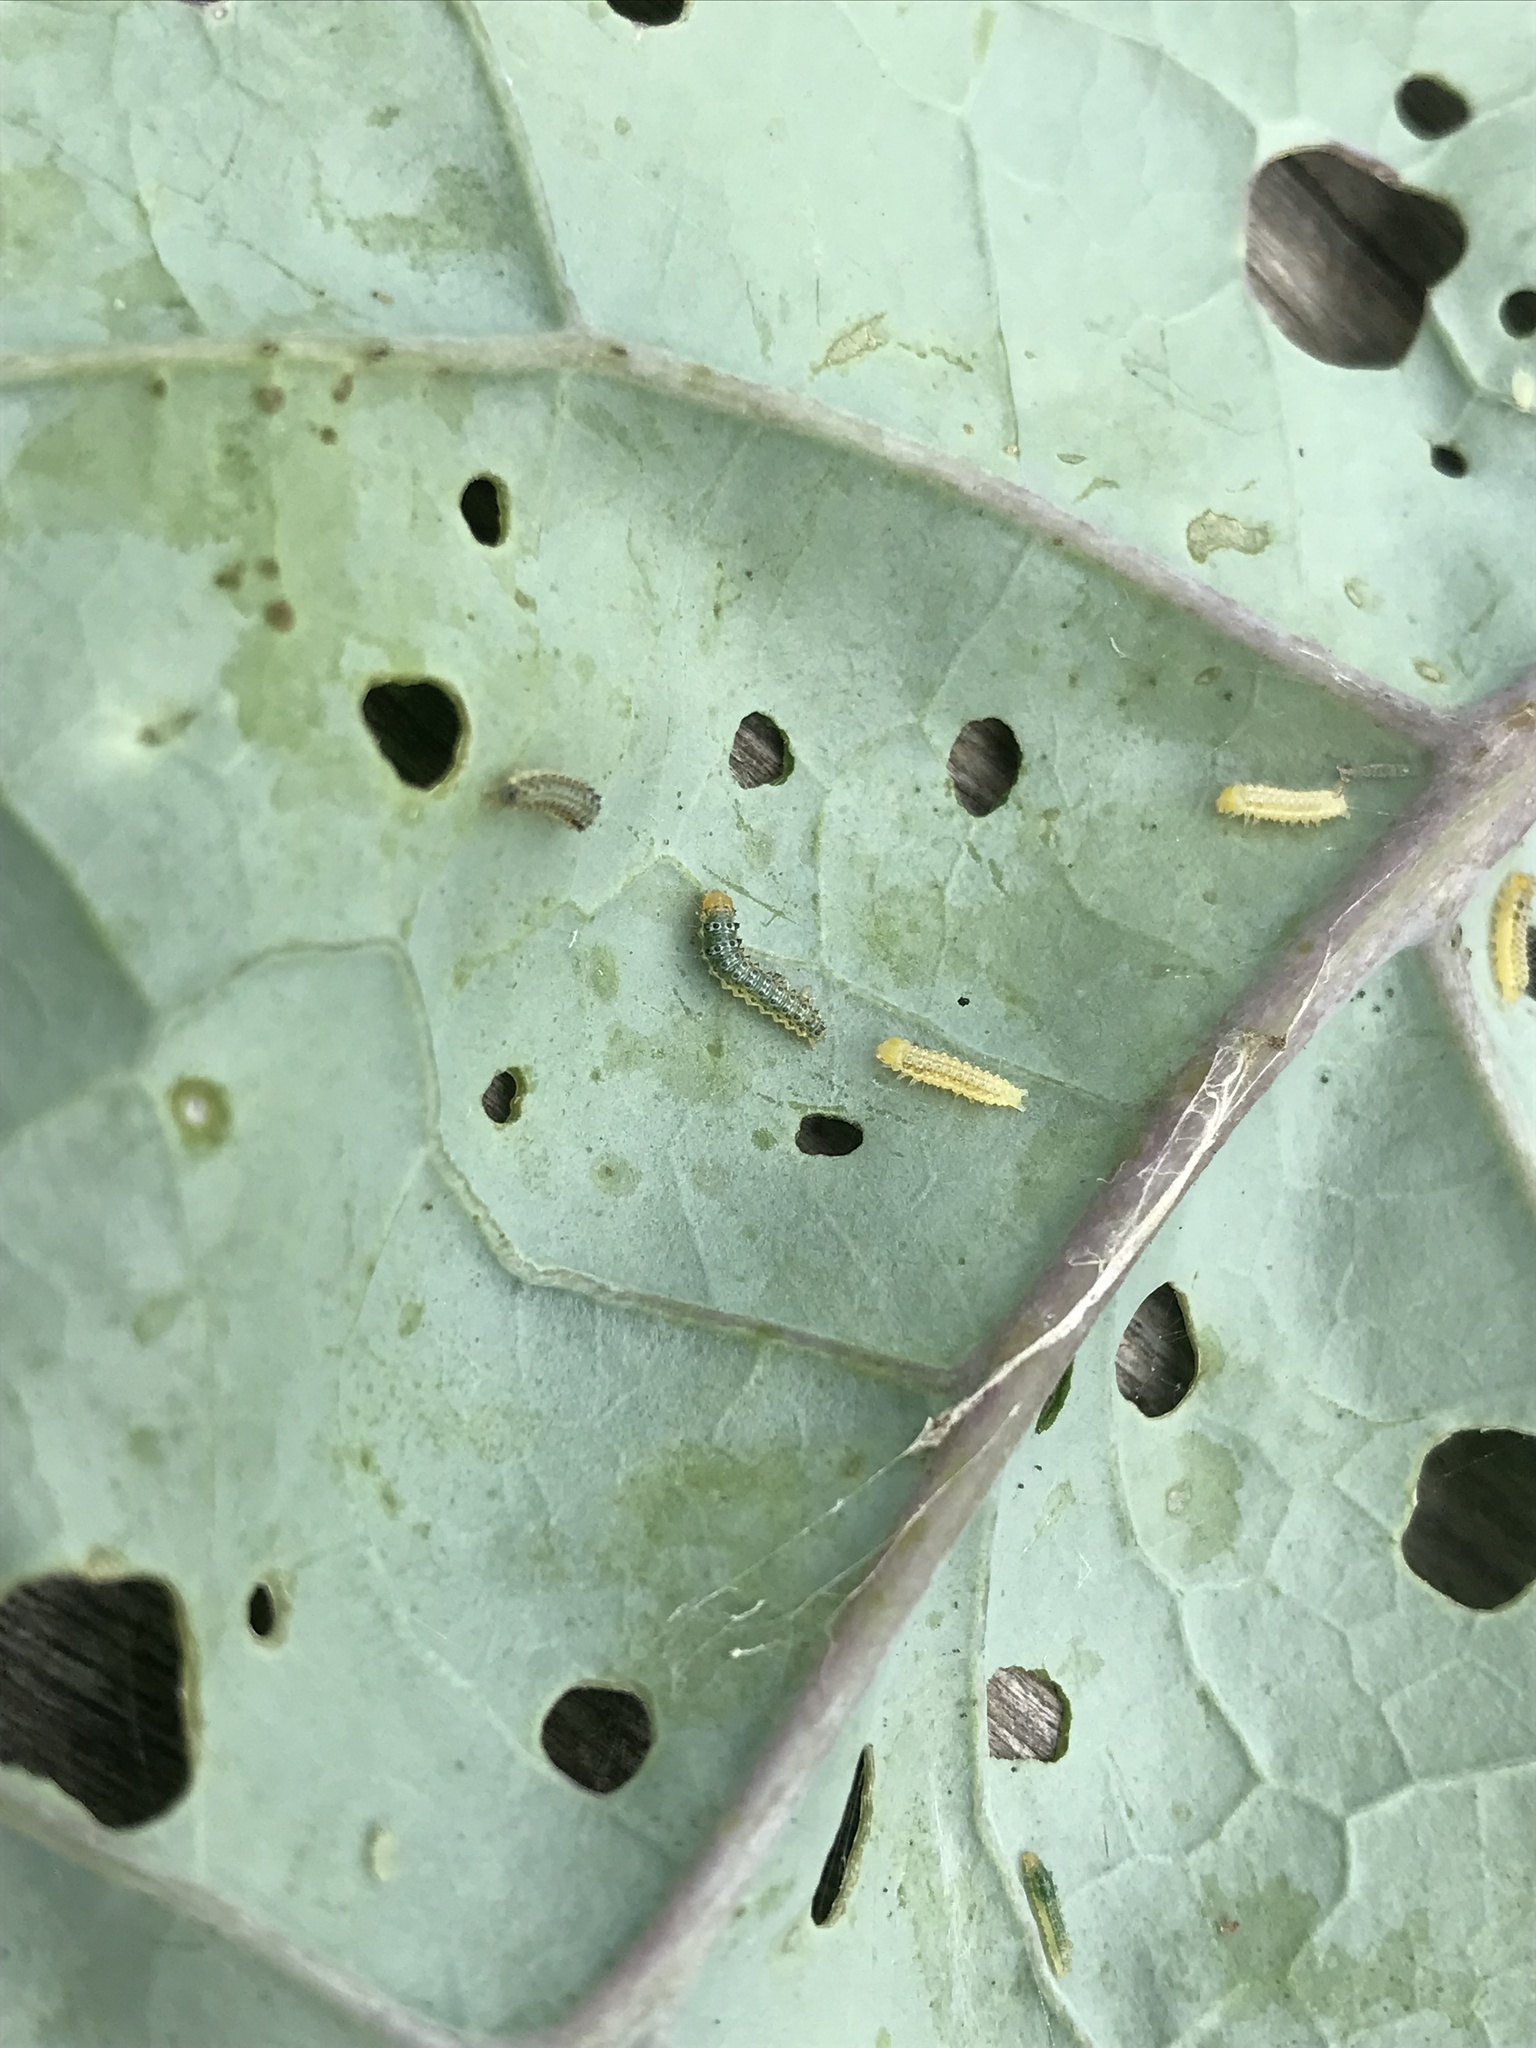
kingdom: Animalia
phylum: Arthropoda
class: Insecta
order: Lepidoptera
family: Crambidae
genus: Evergestis
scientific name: Evergestis rimosalis
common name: Cross-striped cabbageworm moth
